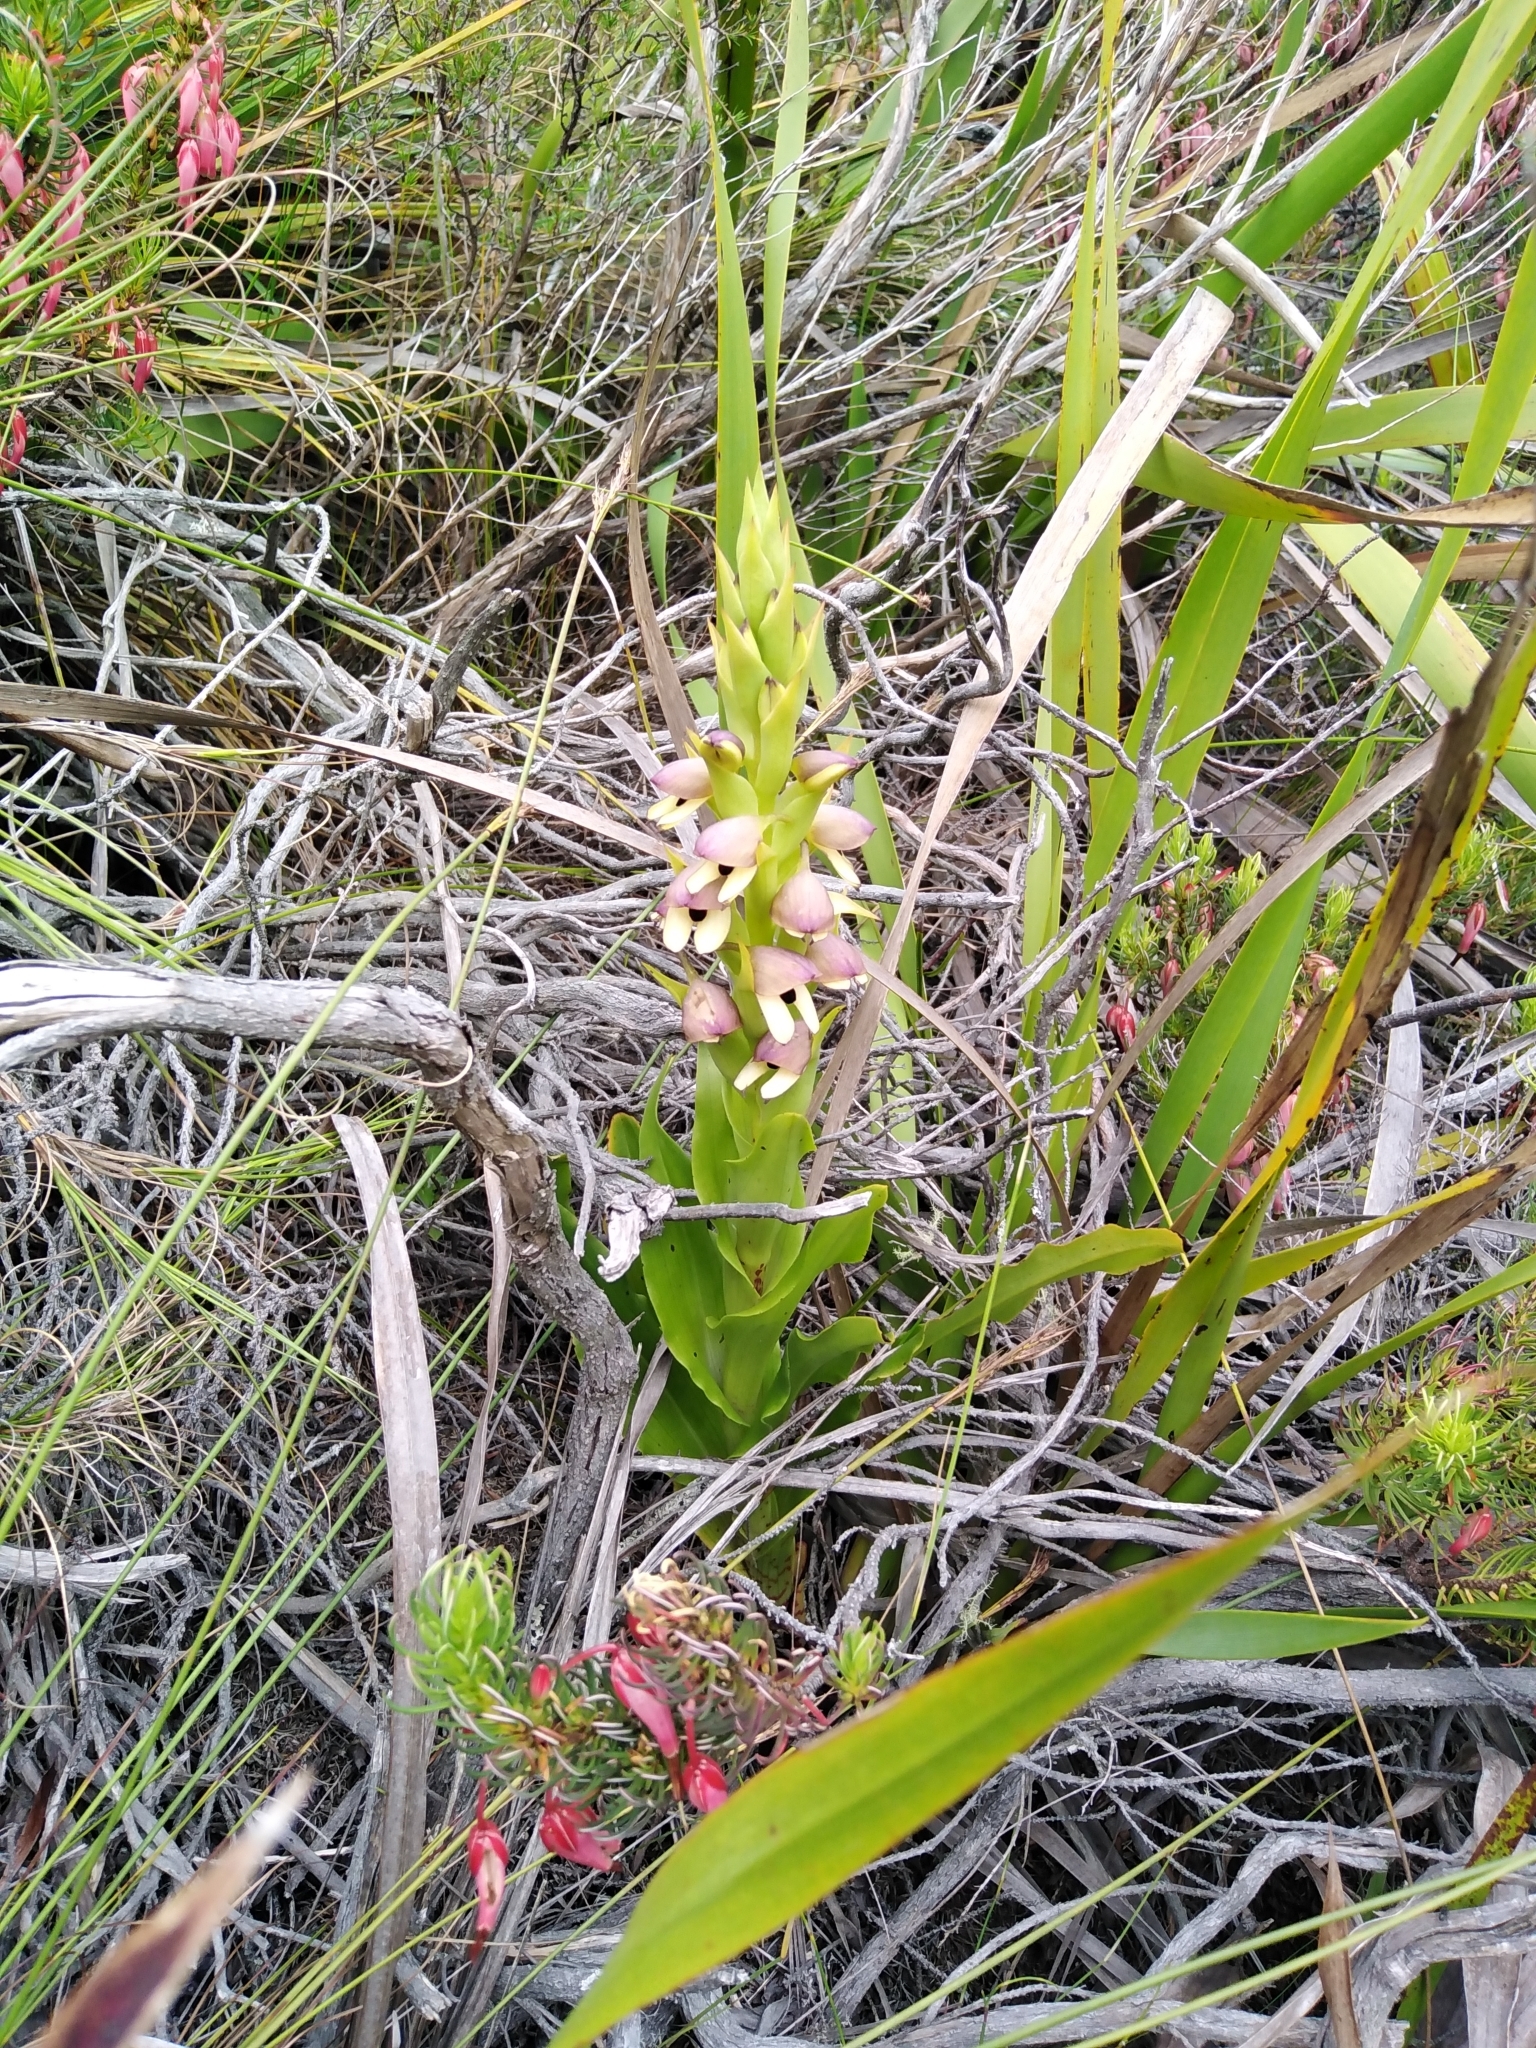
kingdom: Plantae
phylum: Tracheophyta
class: Liliopsida
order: Asparagales
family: Orchidaceae
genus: Disa
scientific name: Disa cornuta
